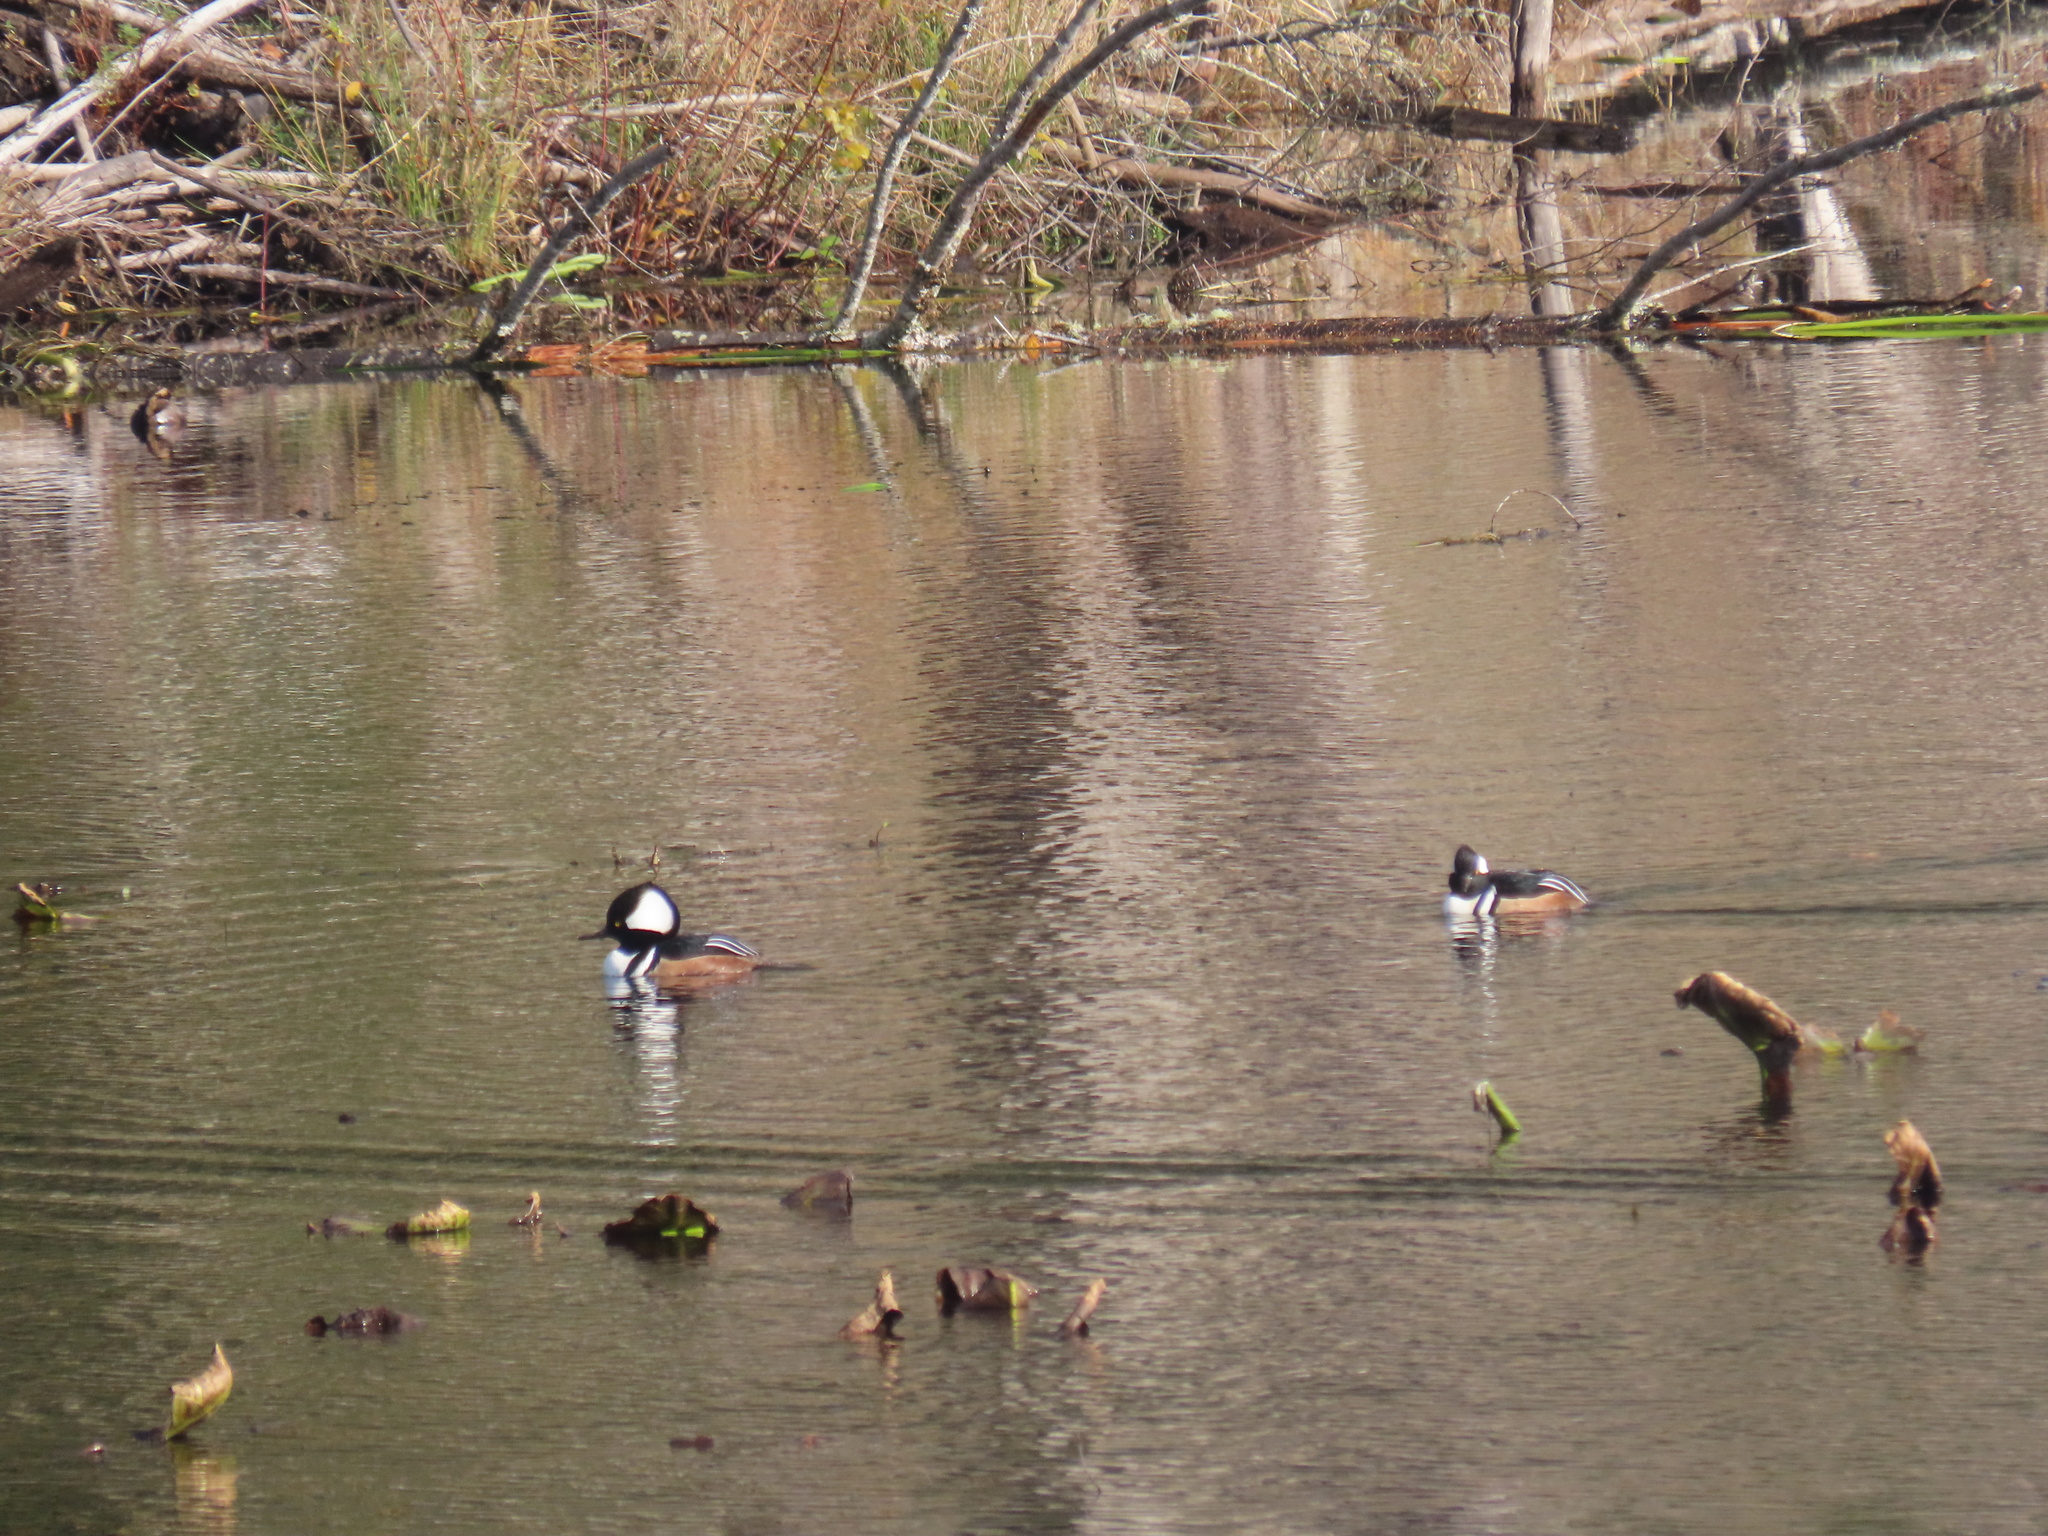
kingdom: Animalia
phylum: Chordata
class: Aves
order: Anseriformes
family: Anatidae
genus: Lophodytes
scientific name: Lophodytes cucullatus
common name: Hooded merganser
